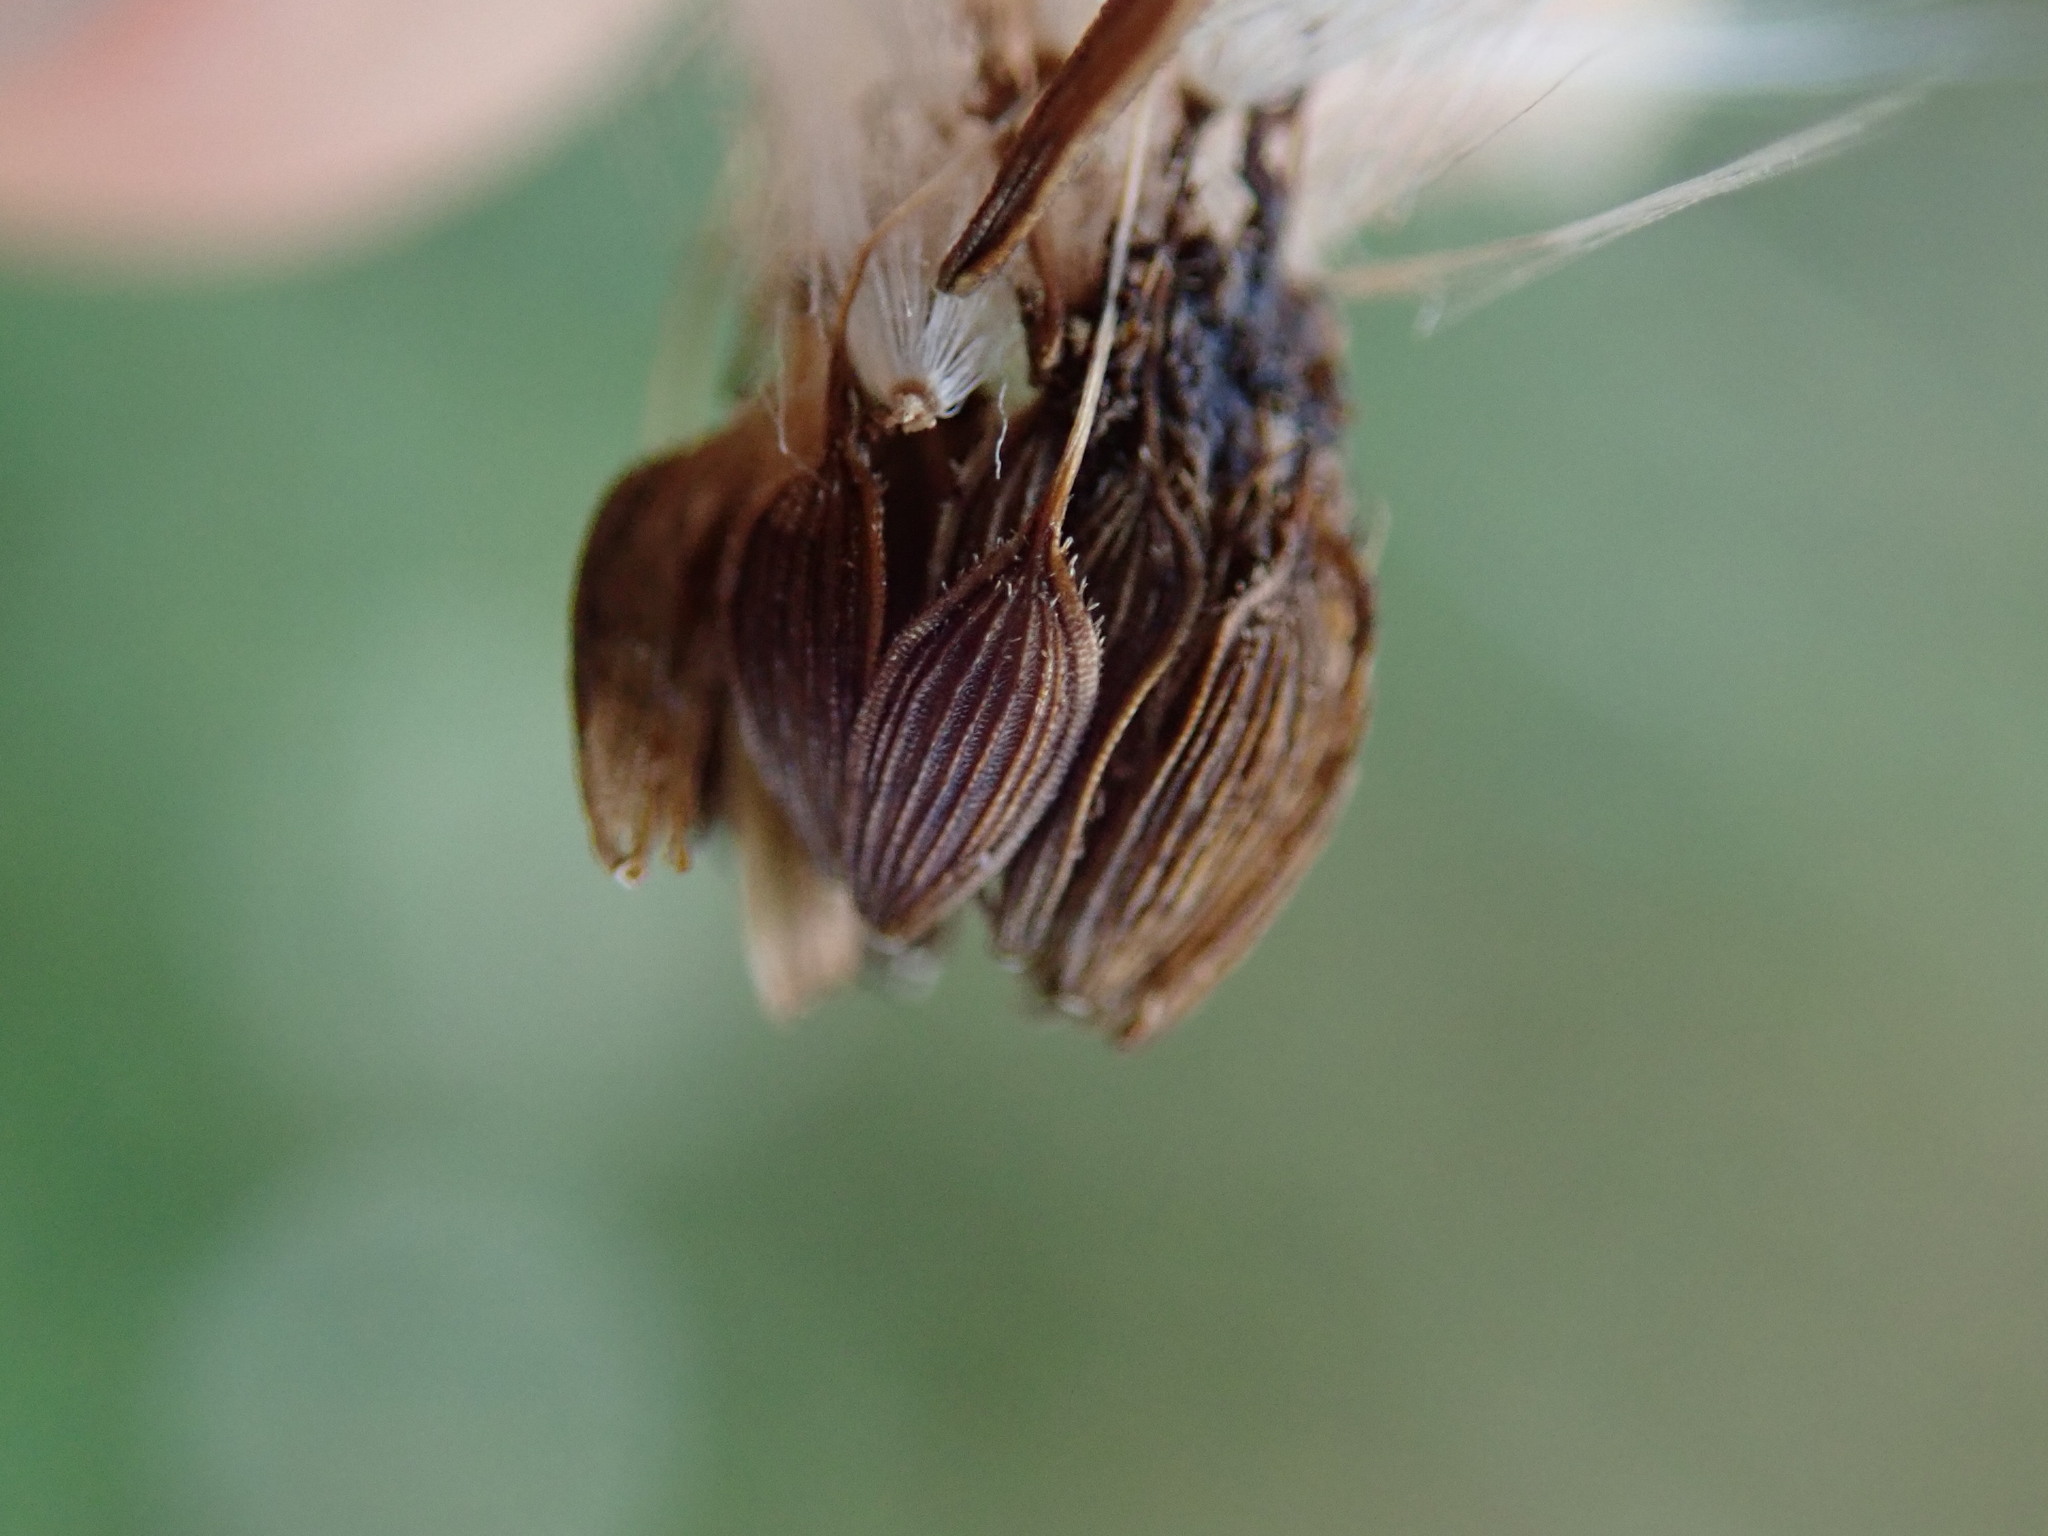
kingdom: Plantae
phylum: Tracheophyta
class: Magnoliopsida
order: Asterales
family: Asteraceae
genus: Lactuca
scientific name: Lactuca serriola
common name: Prickly lettuce
